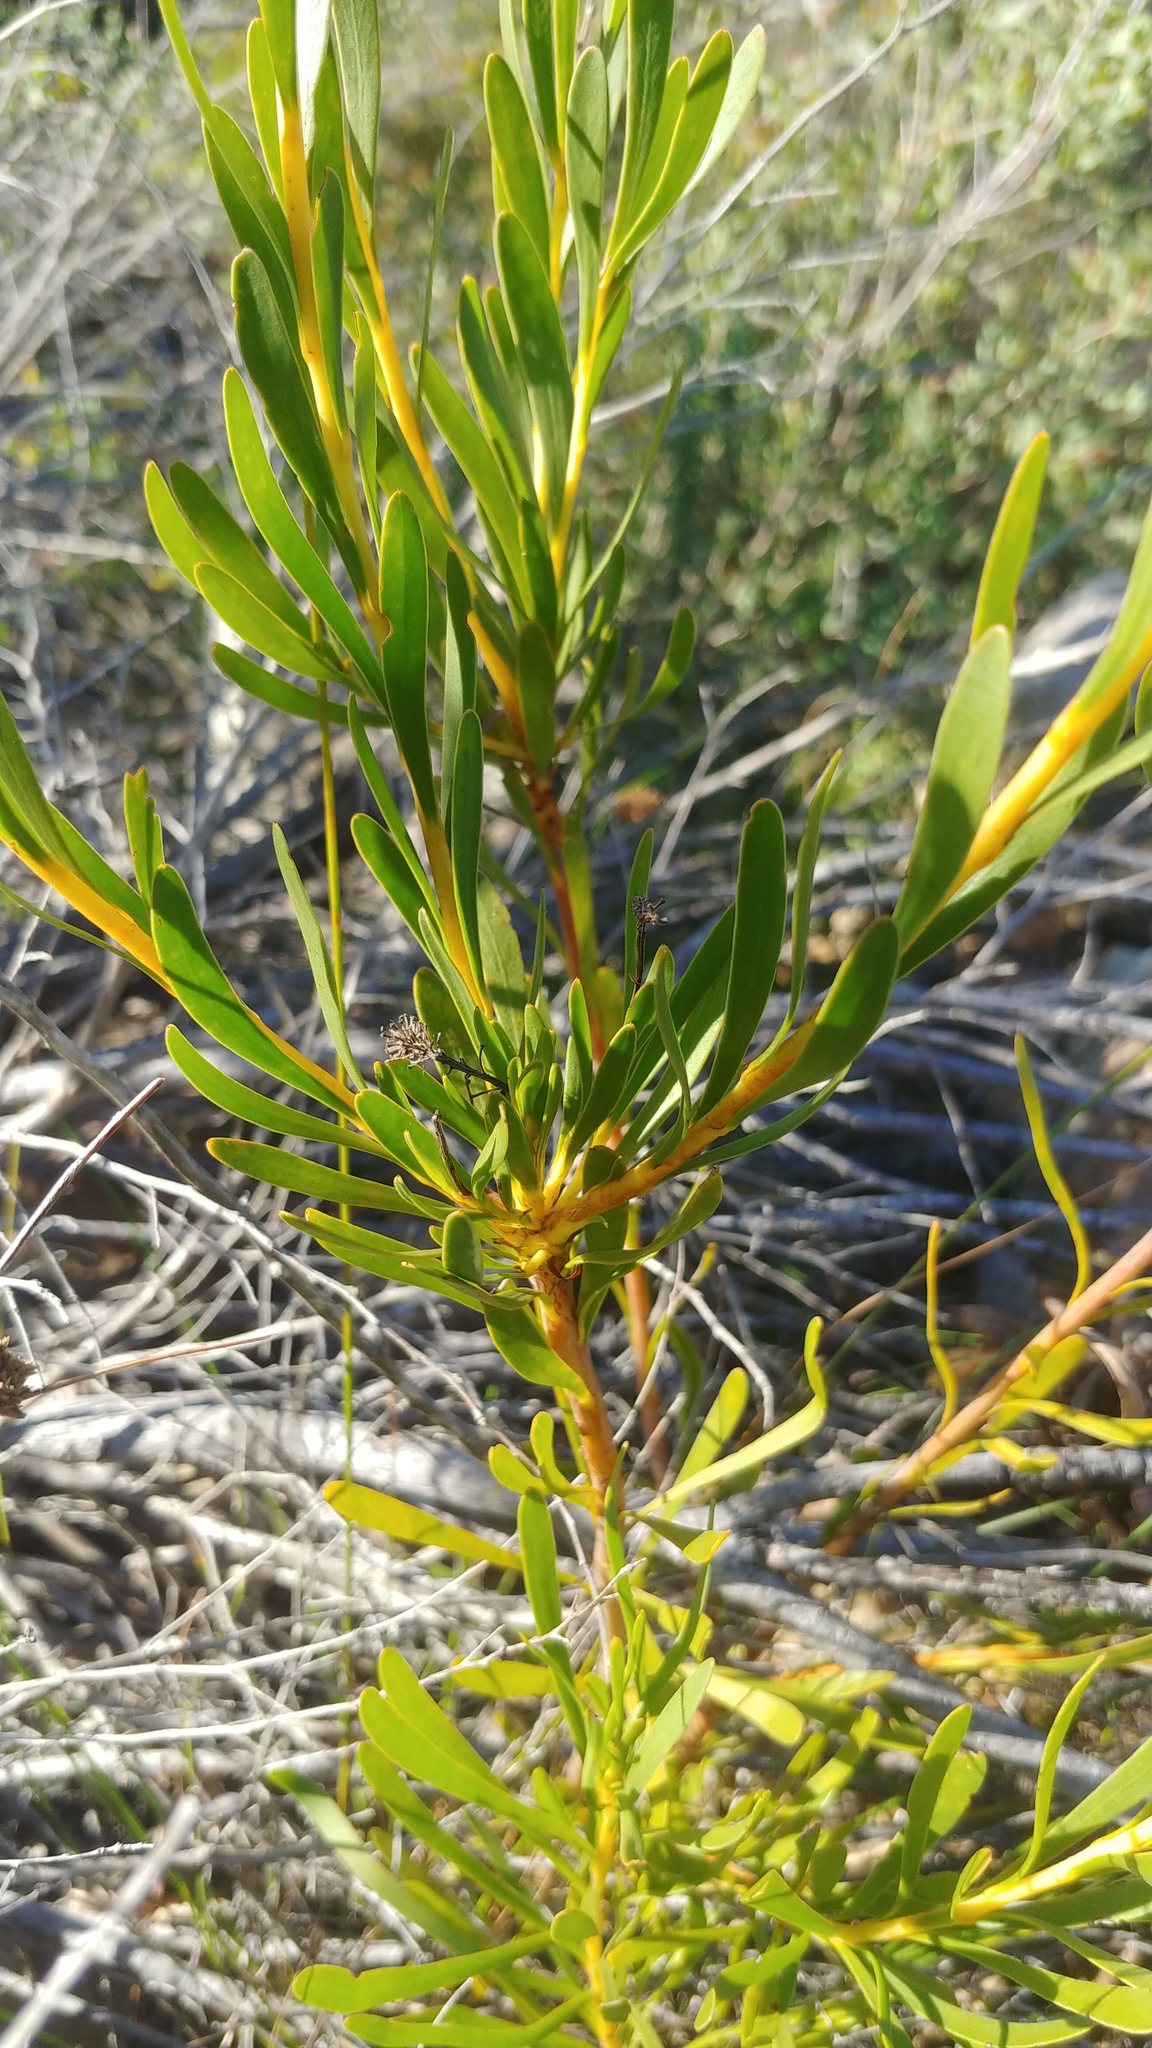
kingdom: Plantae
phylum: Tracheophyta
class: Magnoliopsida
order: Proteales
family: Proteaceae
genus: Aulax
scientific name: Aulax umbellata
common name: Broad-leaf featherbush
